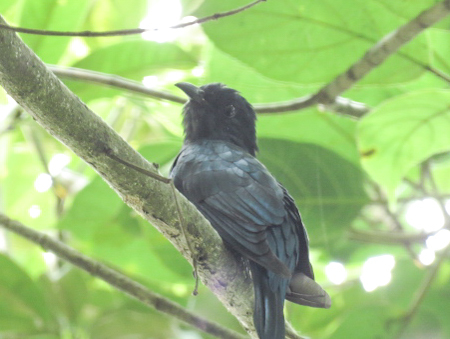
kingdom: Animalia
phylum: Chordata
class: Aves
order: Cuculiformes
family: Cuculidae
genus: Surniculus
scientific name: Surniculus lugubris
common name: Square-tailed drongo-cuckoo
